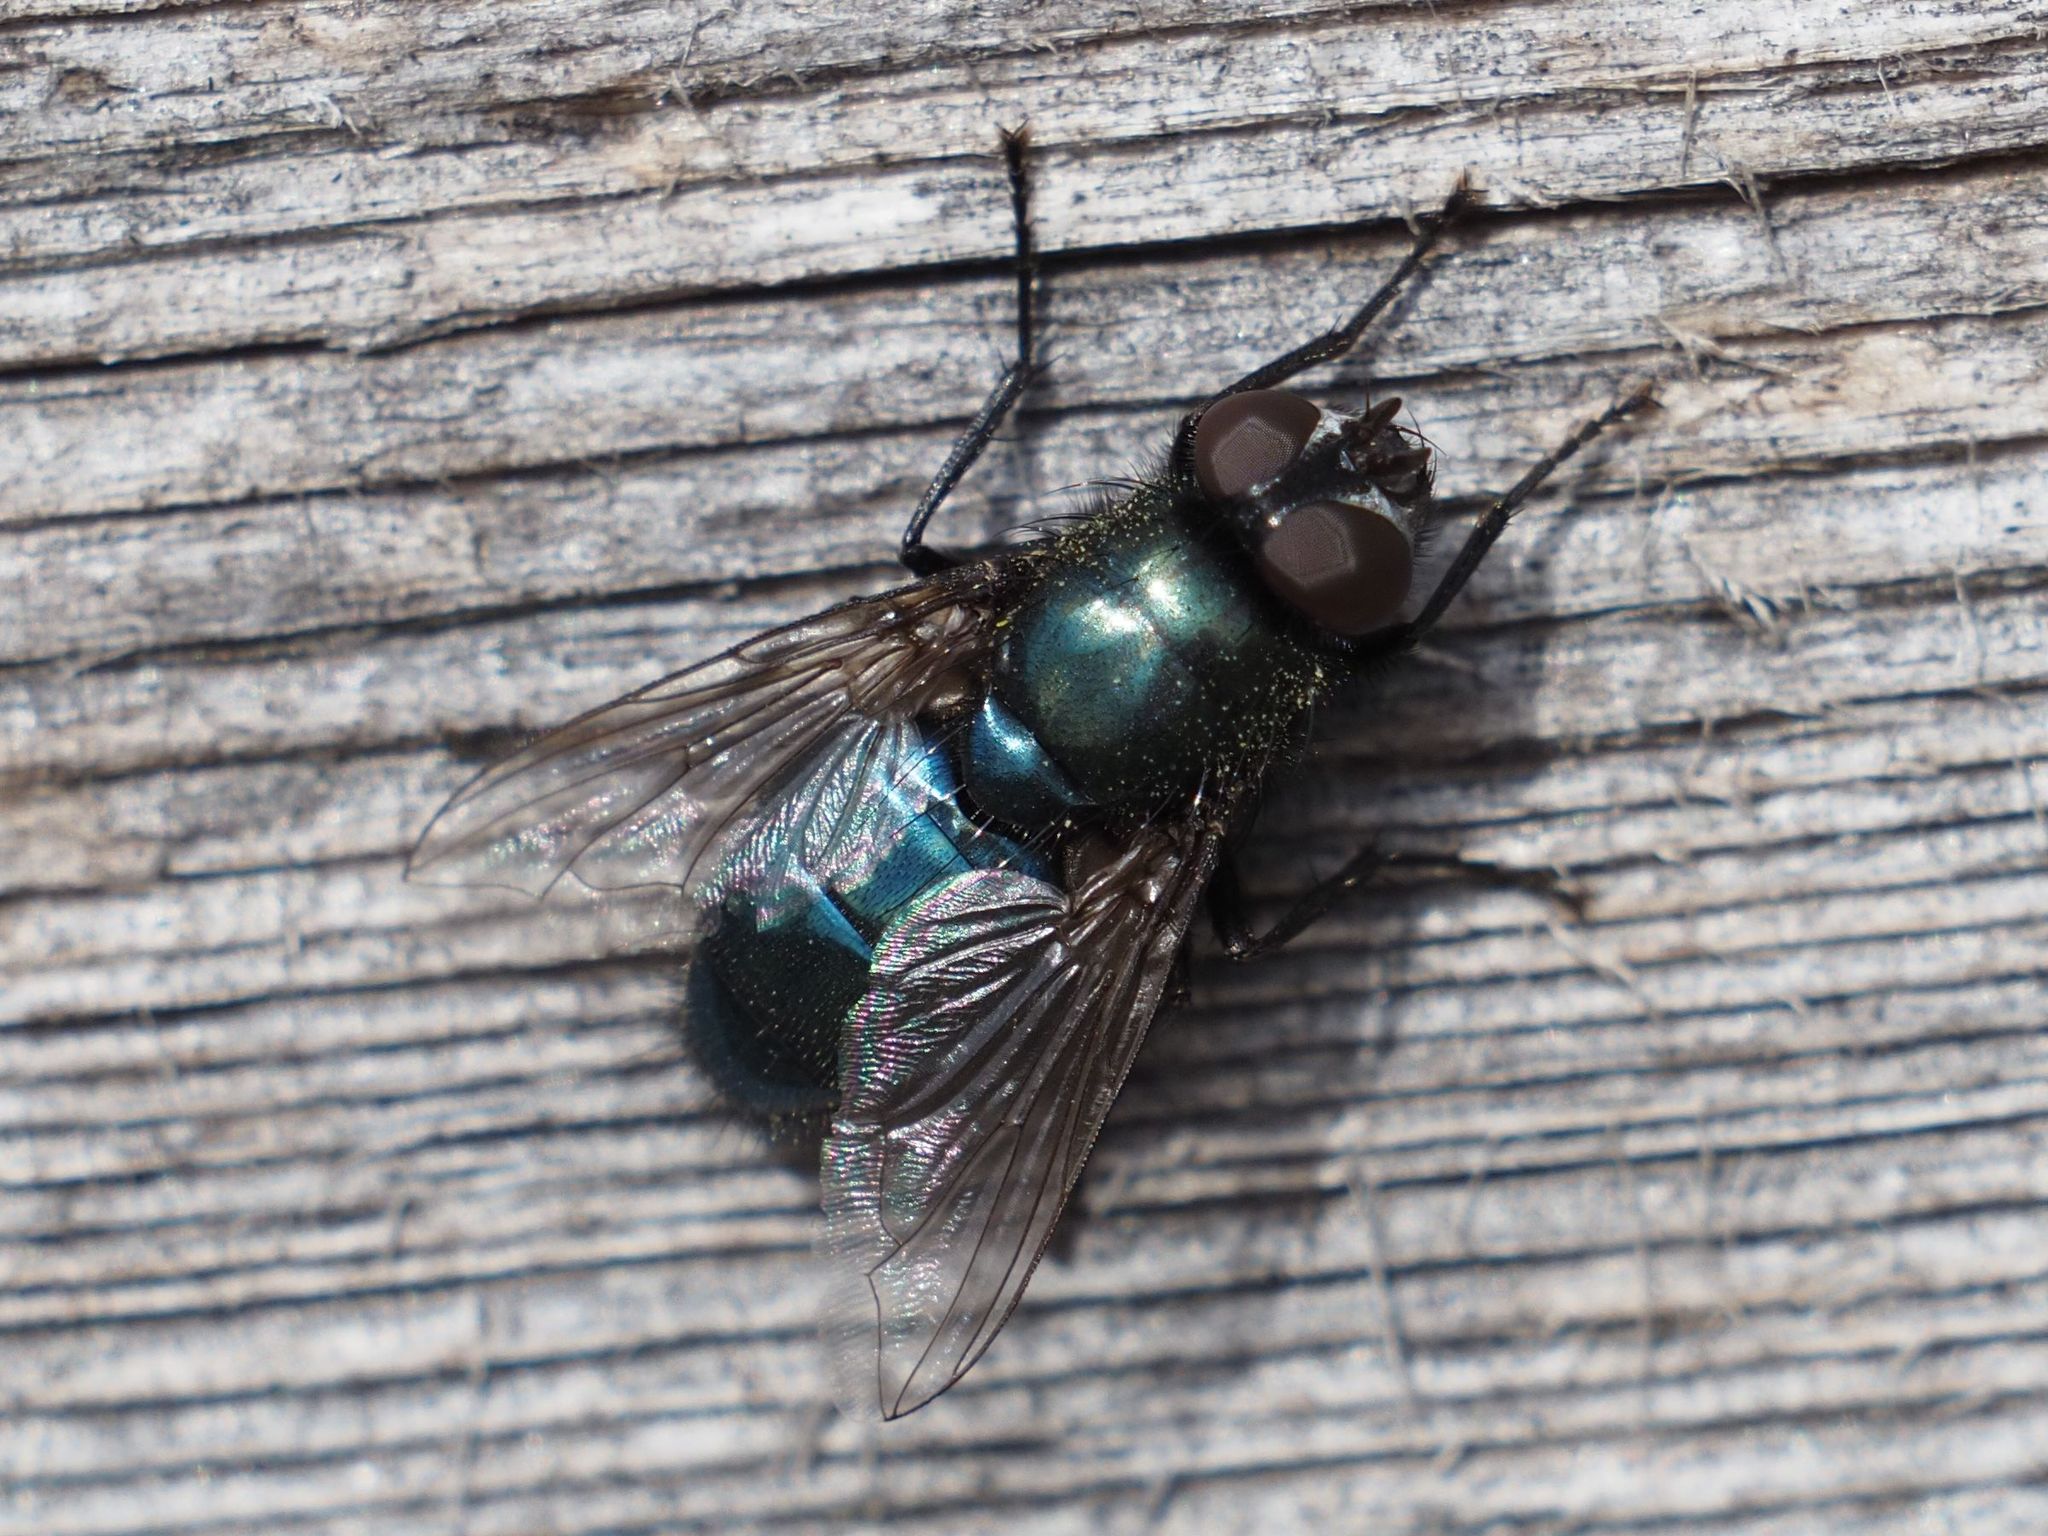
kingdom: Animalia
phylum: Arthropoda
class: Insecta
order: Diptera
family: Calliphoridae
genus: Protophormia
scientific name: Protophormia terraenovae
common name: Blackbottle
